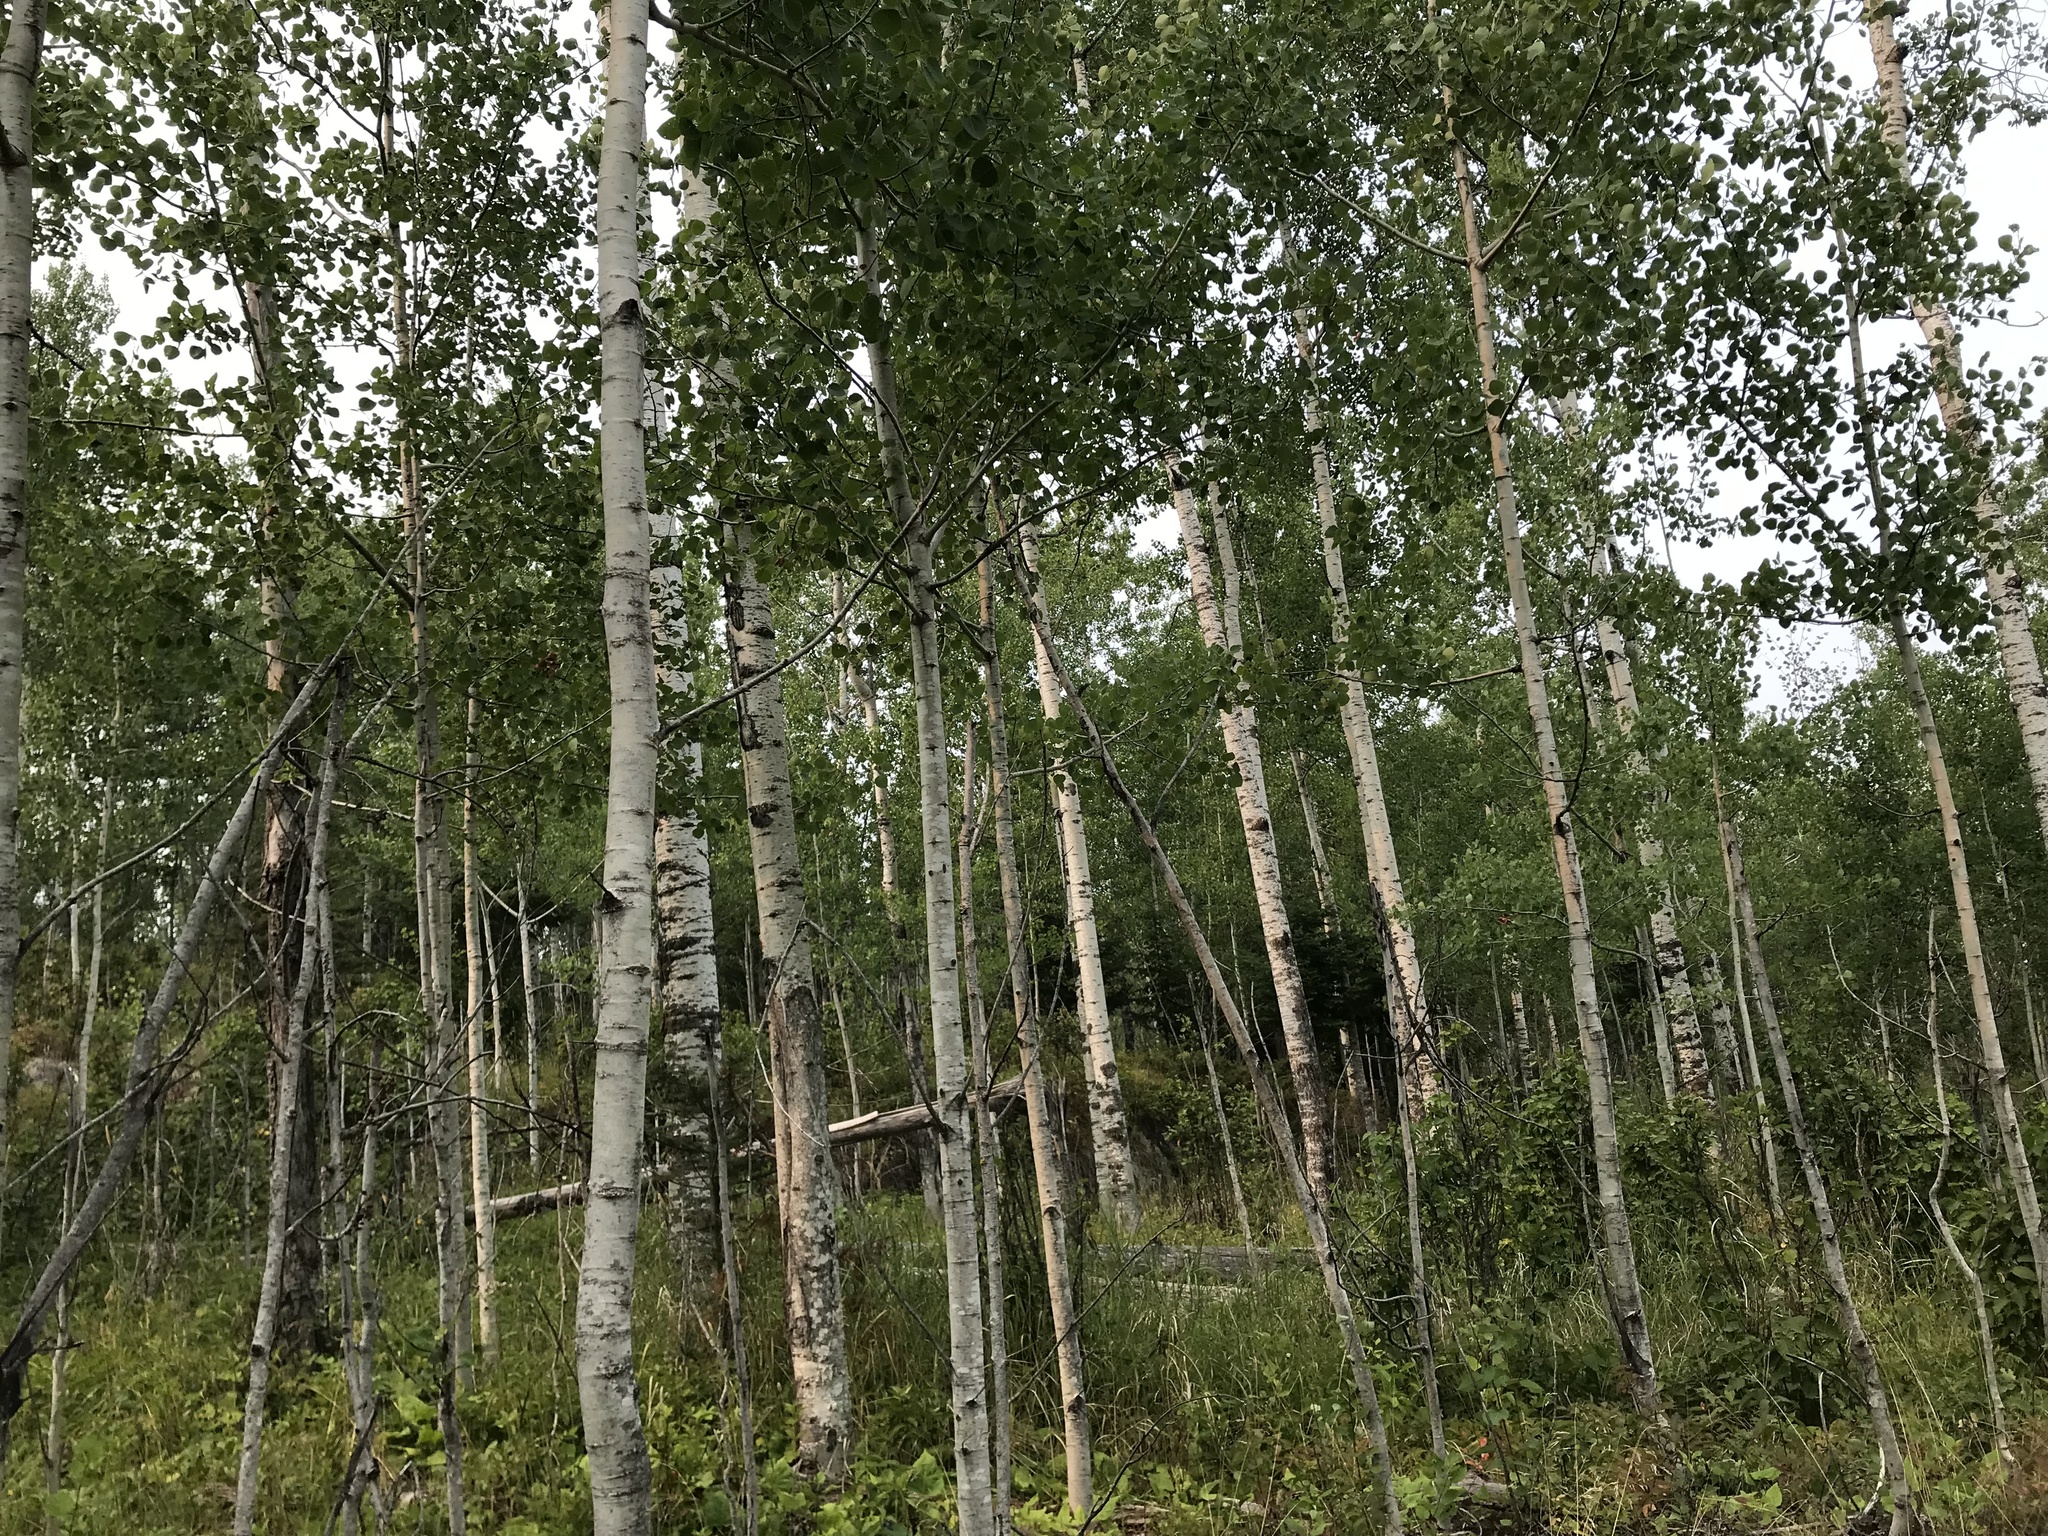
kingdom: Plantae
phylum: Tracheophyta
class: Magnoliopsida
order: Malpighiales
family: Salicaceae
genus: Populus
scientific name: Populus tremuloides
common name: Quaking aspen
